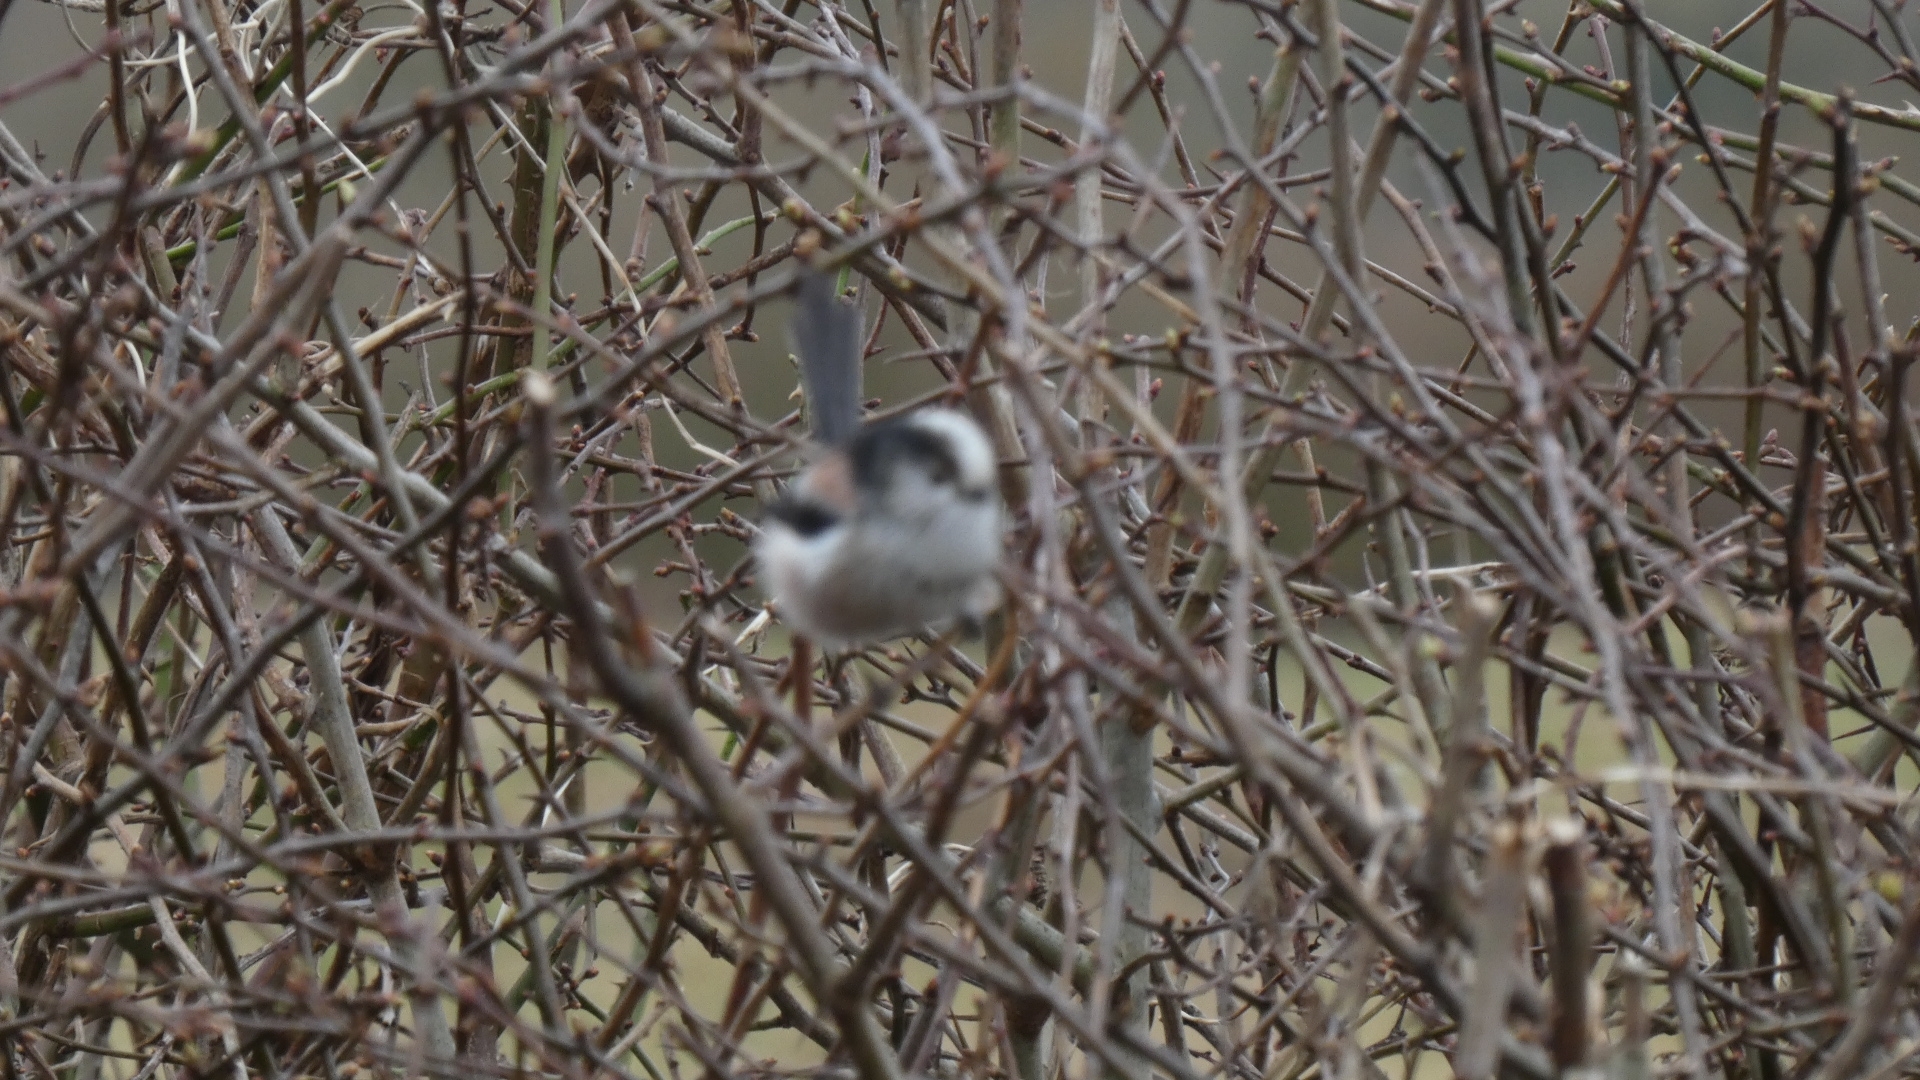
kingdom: Animalia
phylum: Chordata
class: Aves
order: Passeriformes
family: Aegithalidae
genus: Aegithalos
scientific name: Aegithalos caudatus
